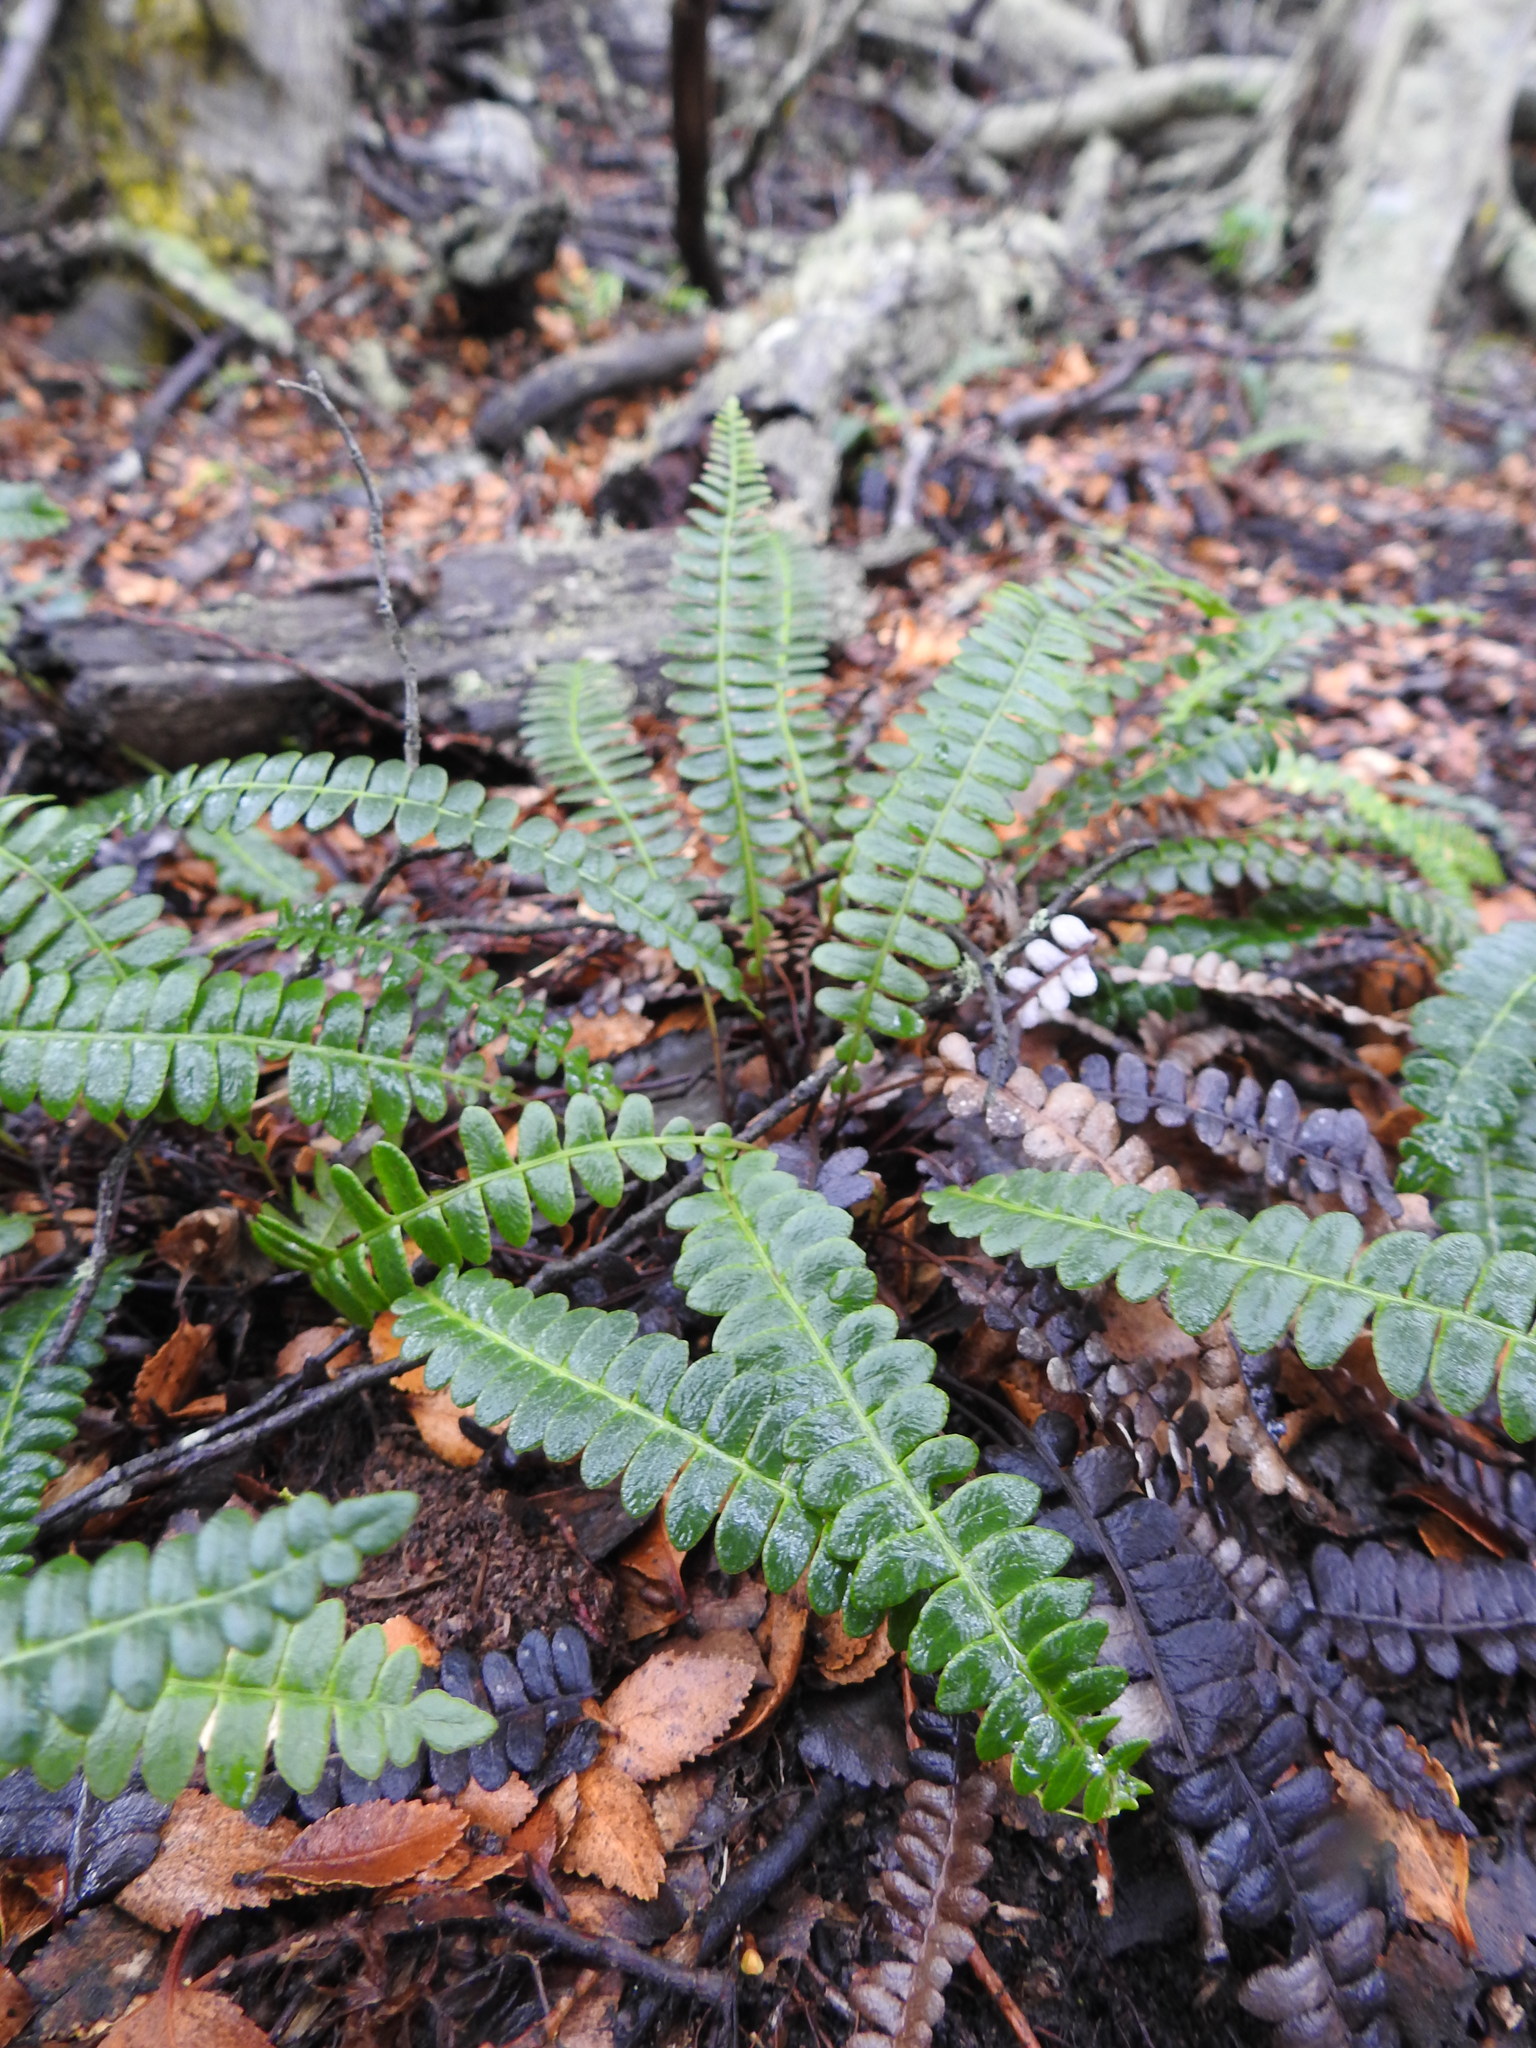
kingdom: Plantae
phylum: Tracheophyta
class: Polypodiopsida
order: Polypodiales
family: Blechnaceae
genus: Austroblechnum
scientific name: Austroblechnum penna-marina
